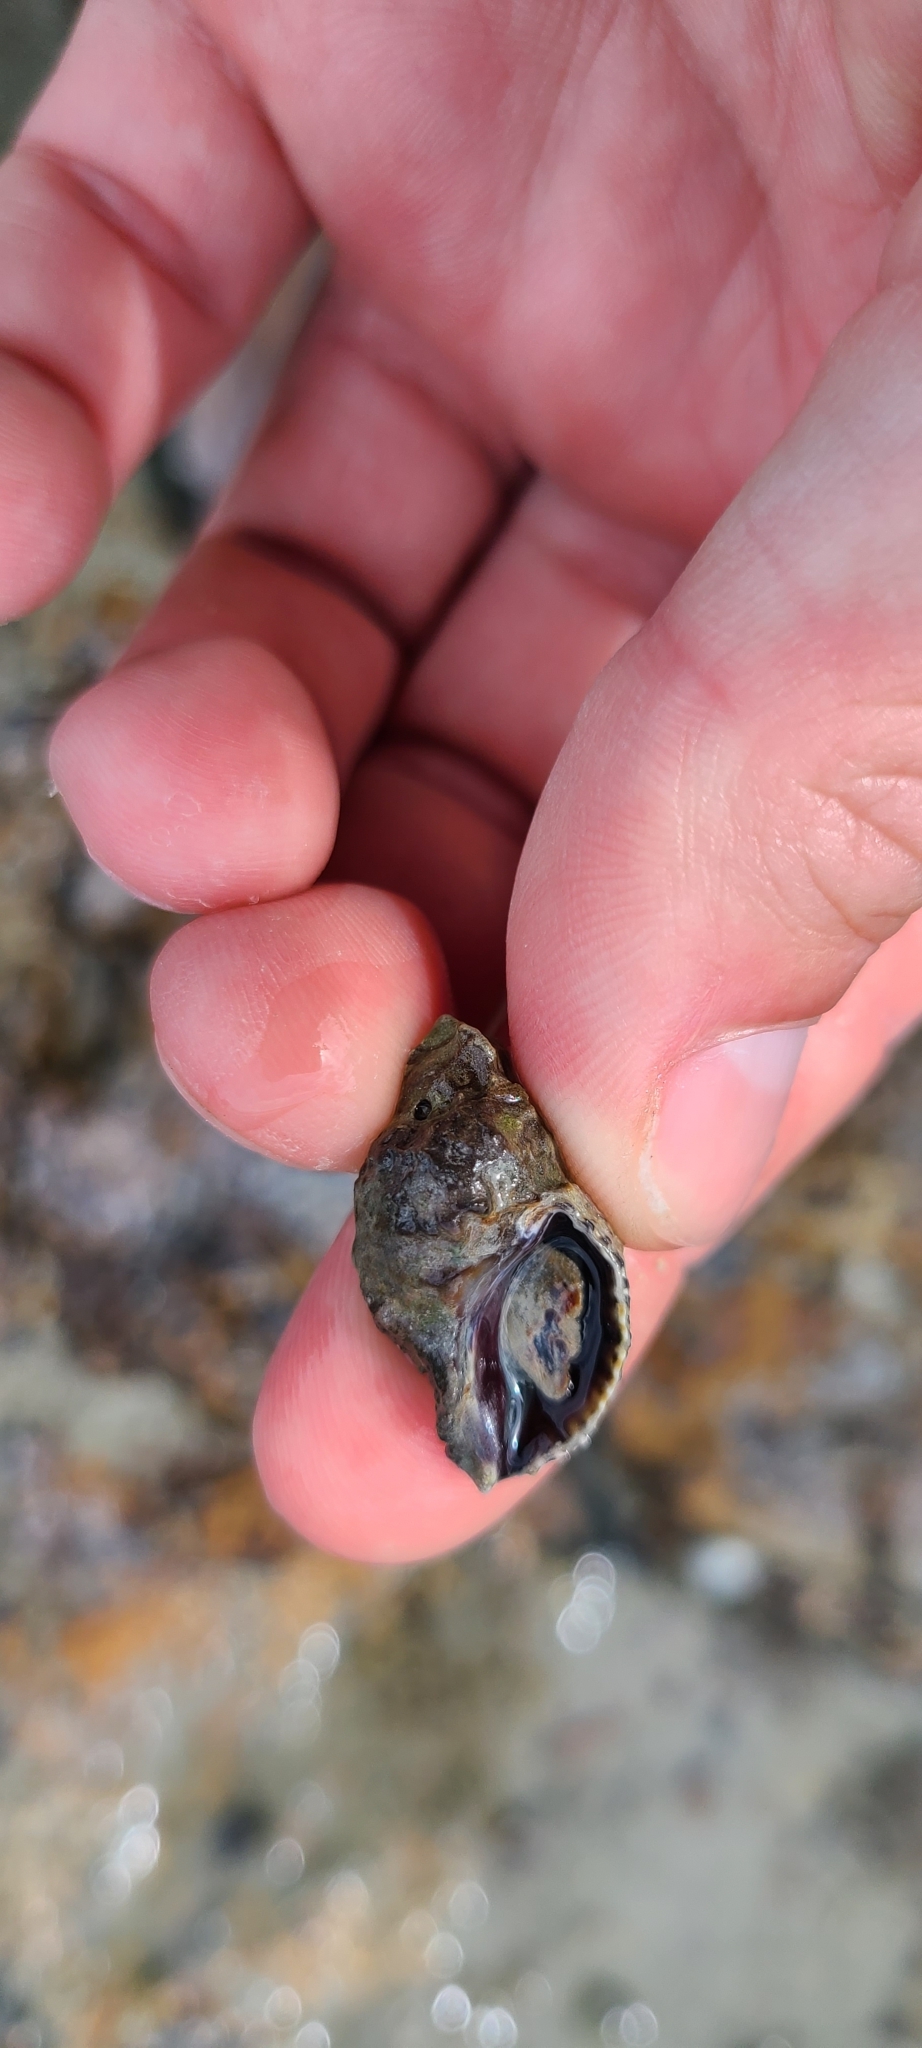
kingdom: Animalia
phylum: Mollusca
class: Gastropoda
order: Neogastropoda
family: Muricidae
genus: Haustrum
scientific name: Haustrum
